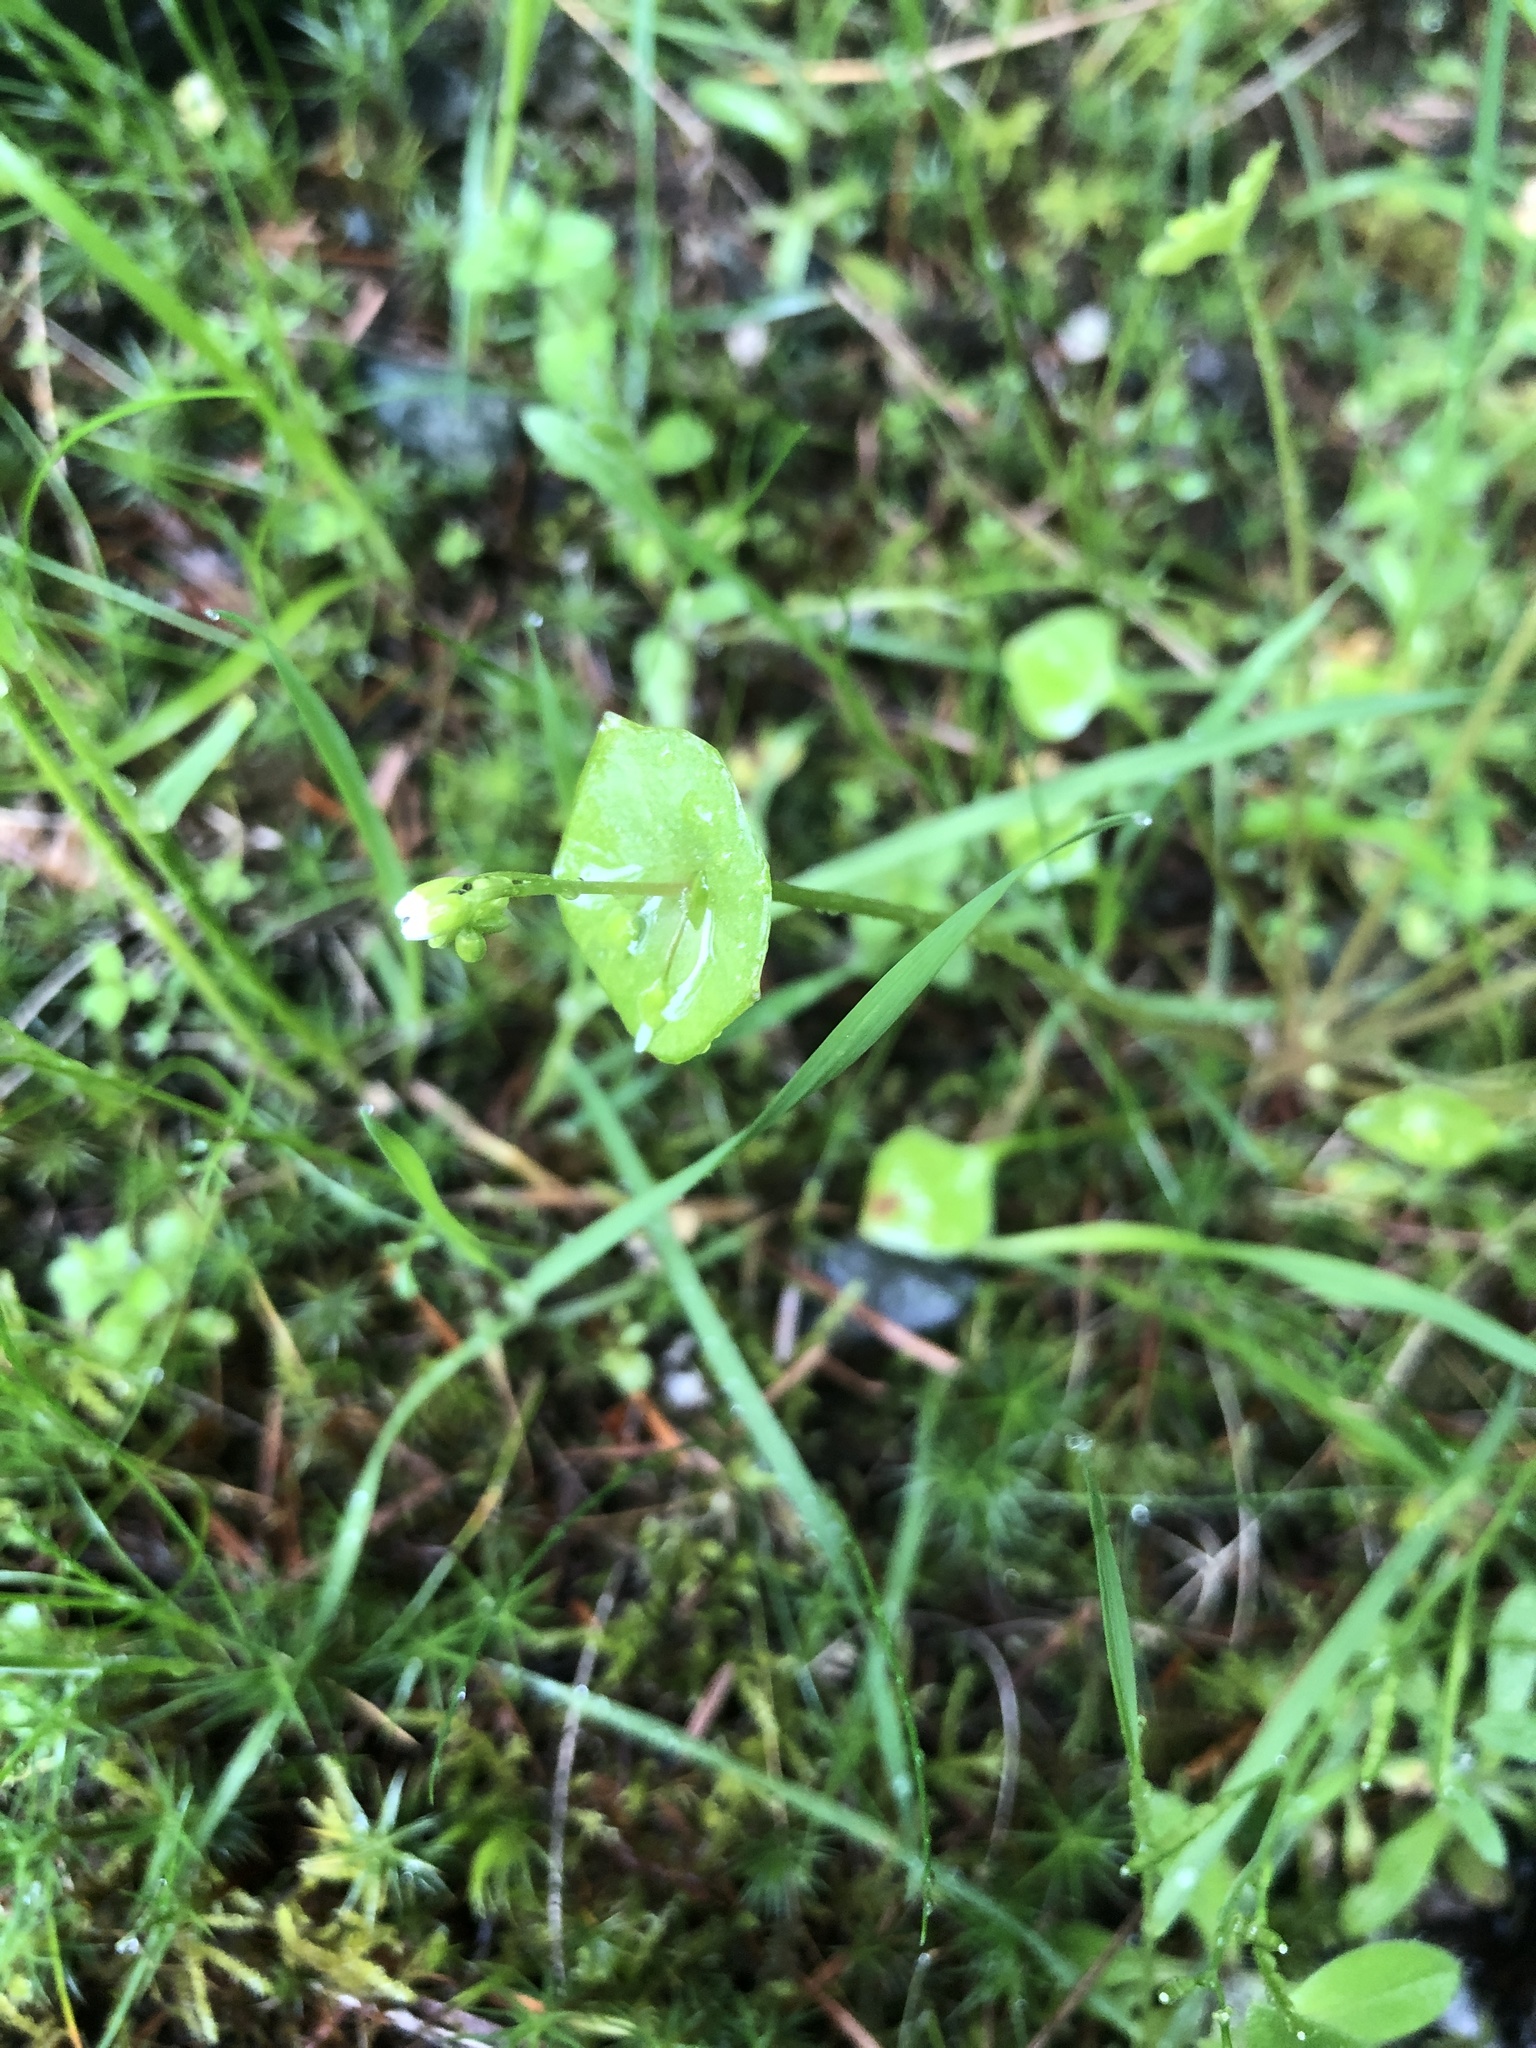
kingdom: Plantae
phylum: Tracheophyta
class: Magnoliopsida
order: Caryophyllales
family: Montiaceae
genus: Claytonia
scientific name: Claytonia perfoliata
